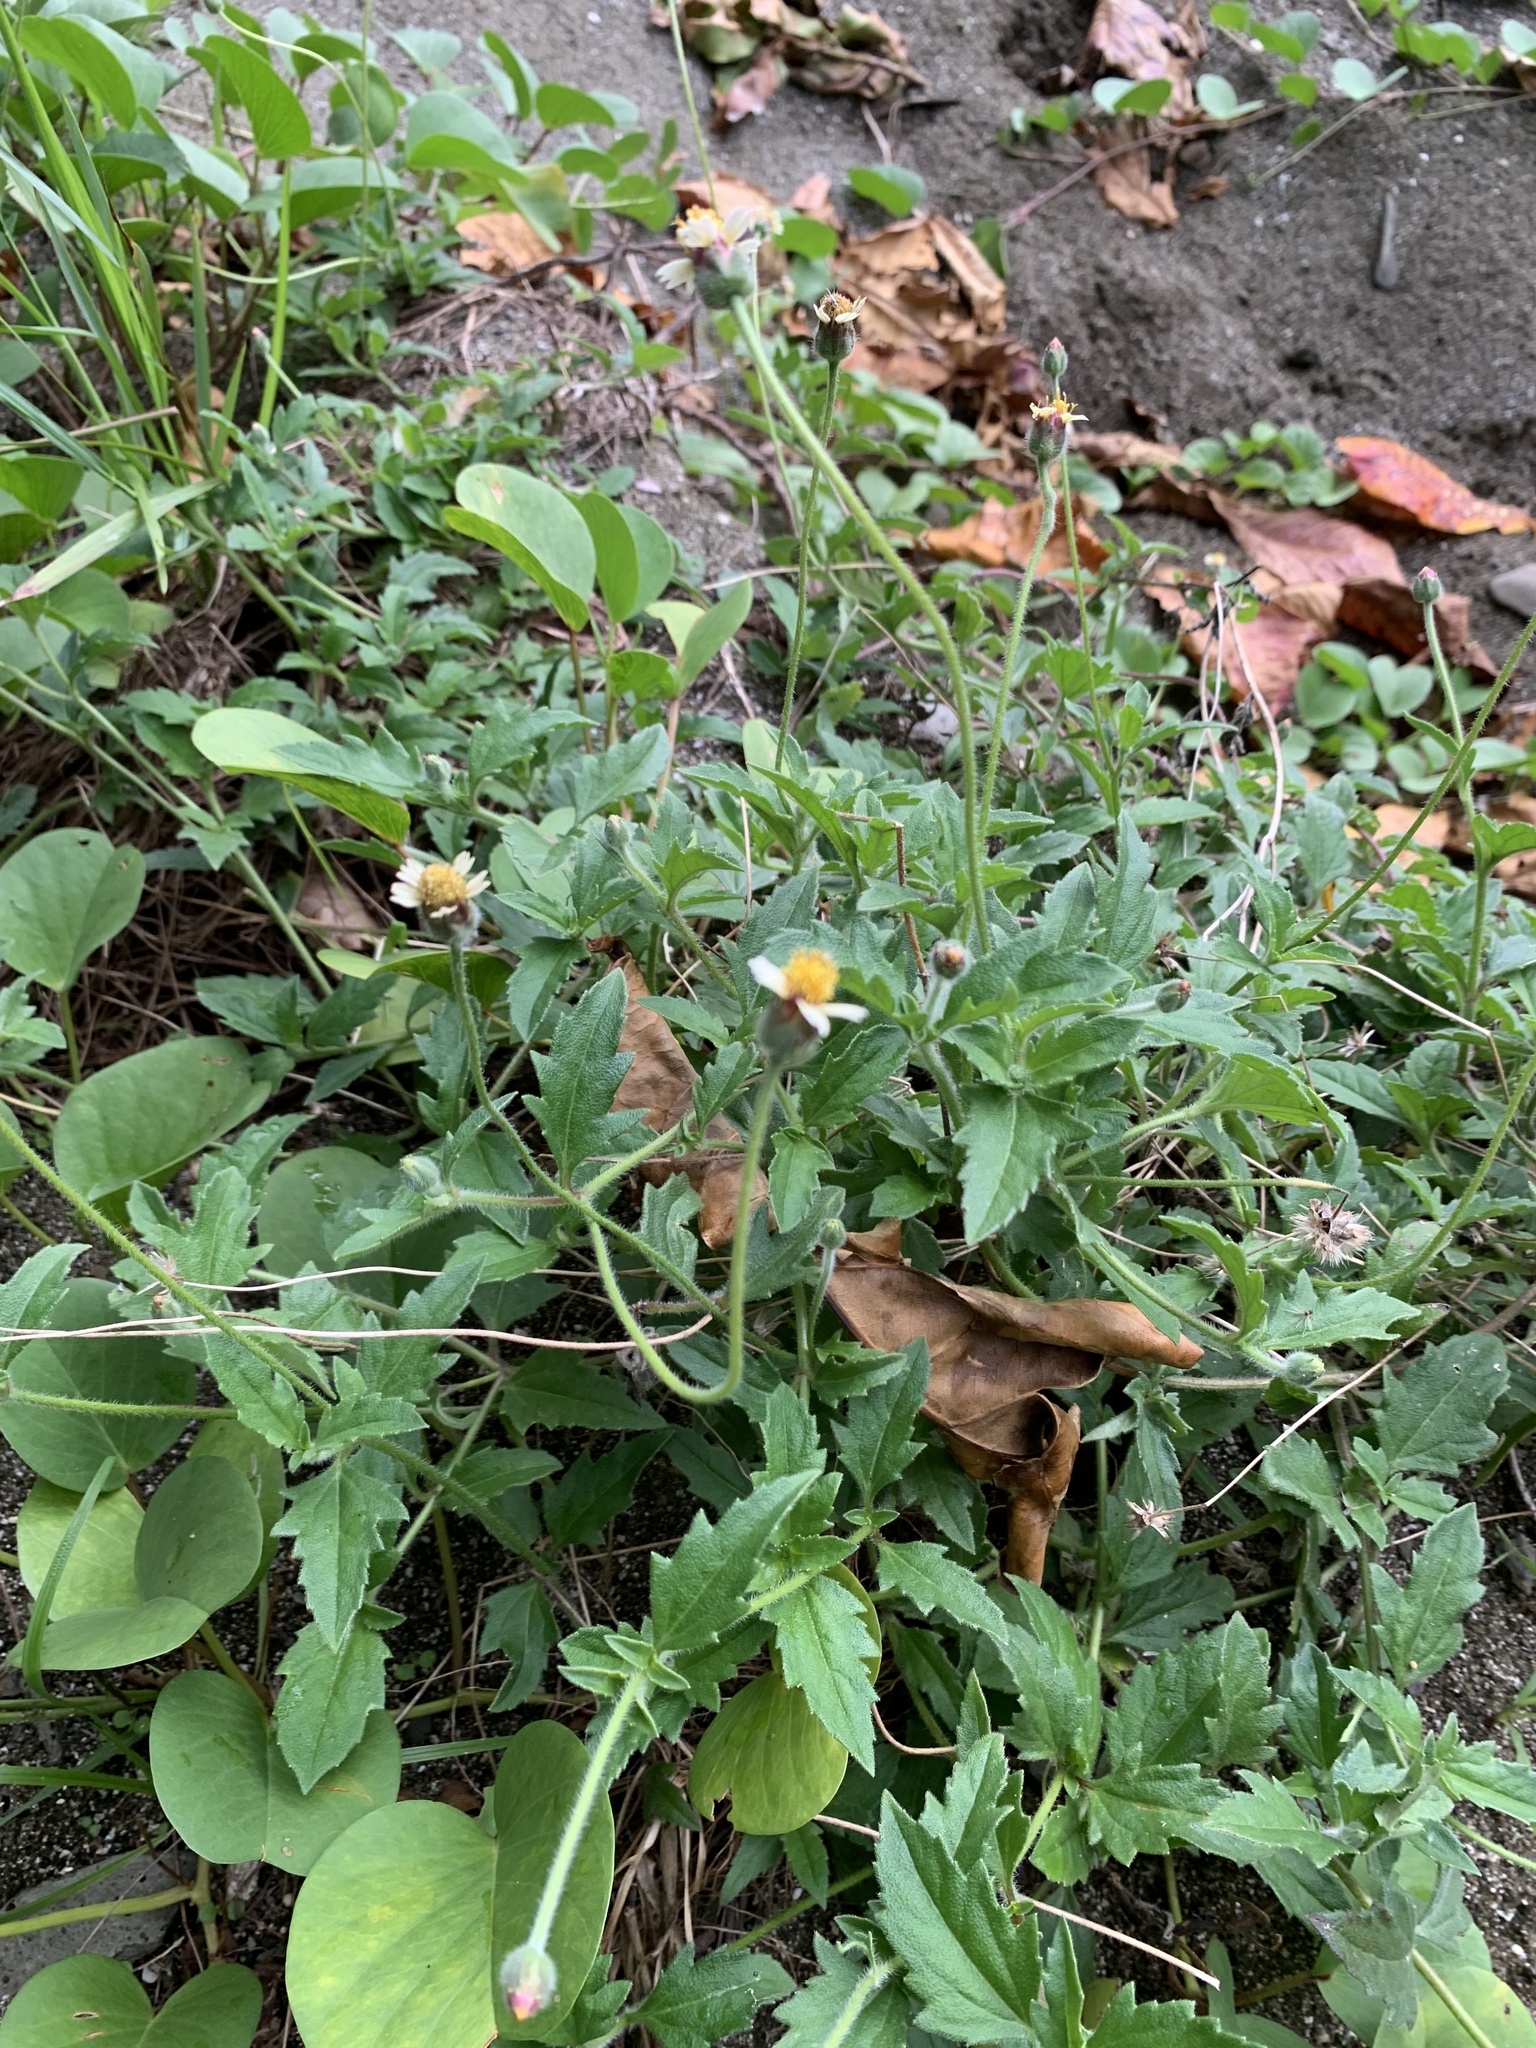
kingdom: Plantae
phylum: Tracheophyta
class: Magnoliopsida
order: Asterales
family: Asteraceae
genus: Tridax
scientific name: Tridax procumbens
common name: Coatbuttons
